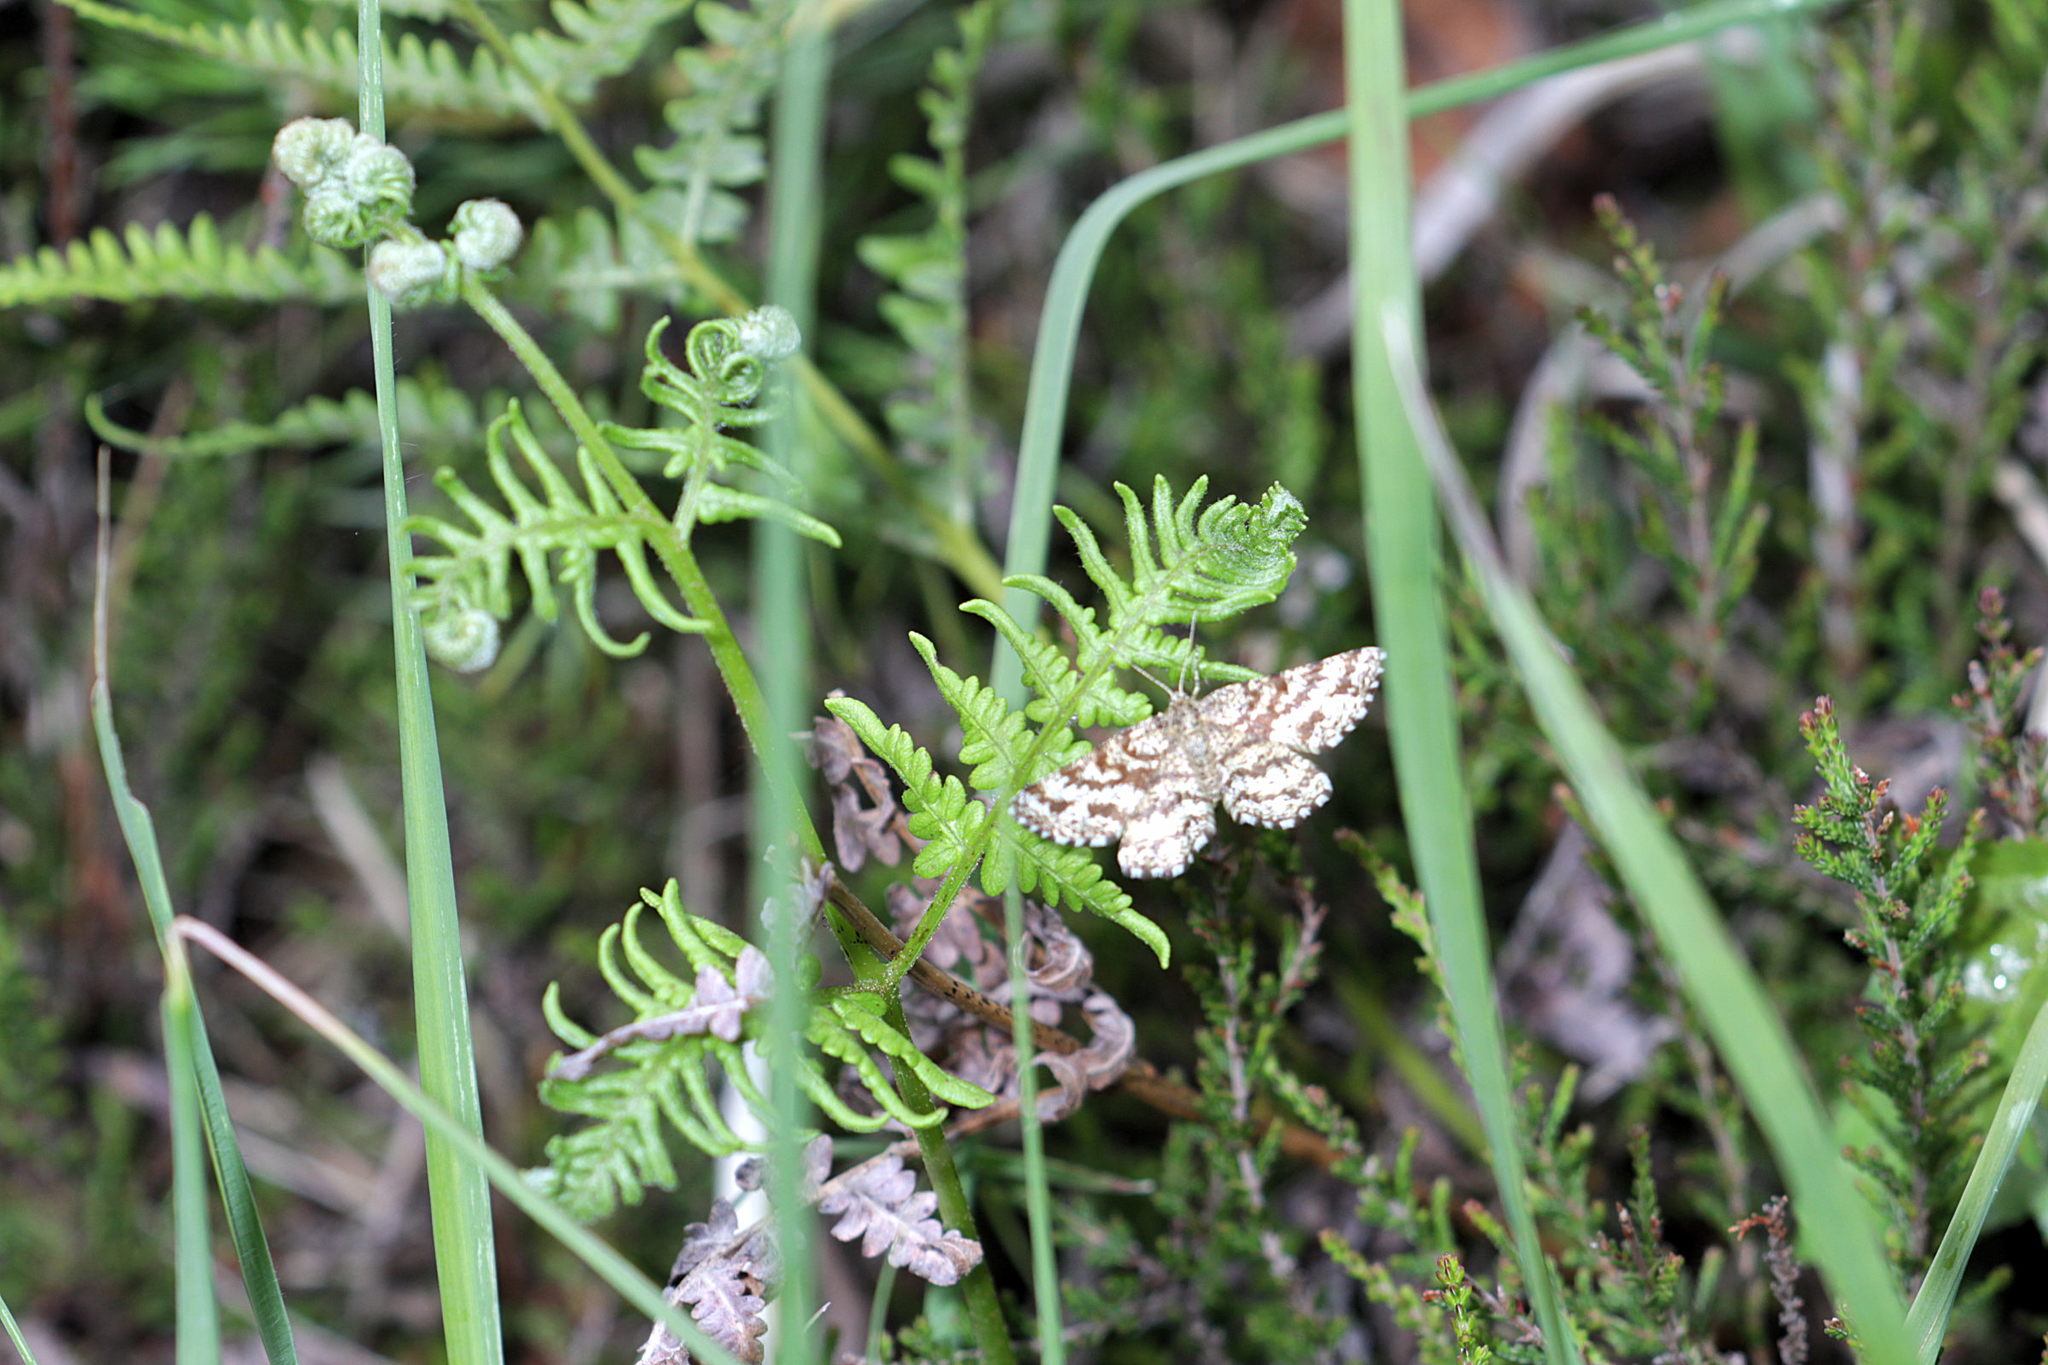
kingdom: Animalia
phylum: Arthropoda
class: Insecta
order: Lepidoptera
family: Geometridae
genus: Ematurga
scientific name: Ematurga atomaria
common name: Common heath
